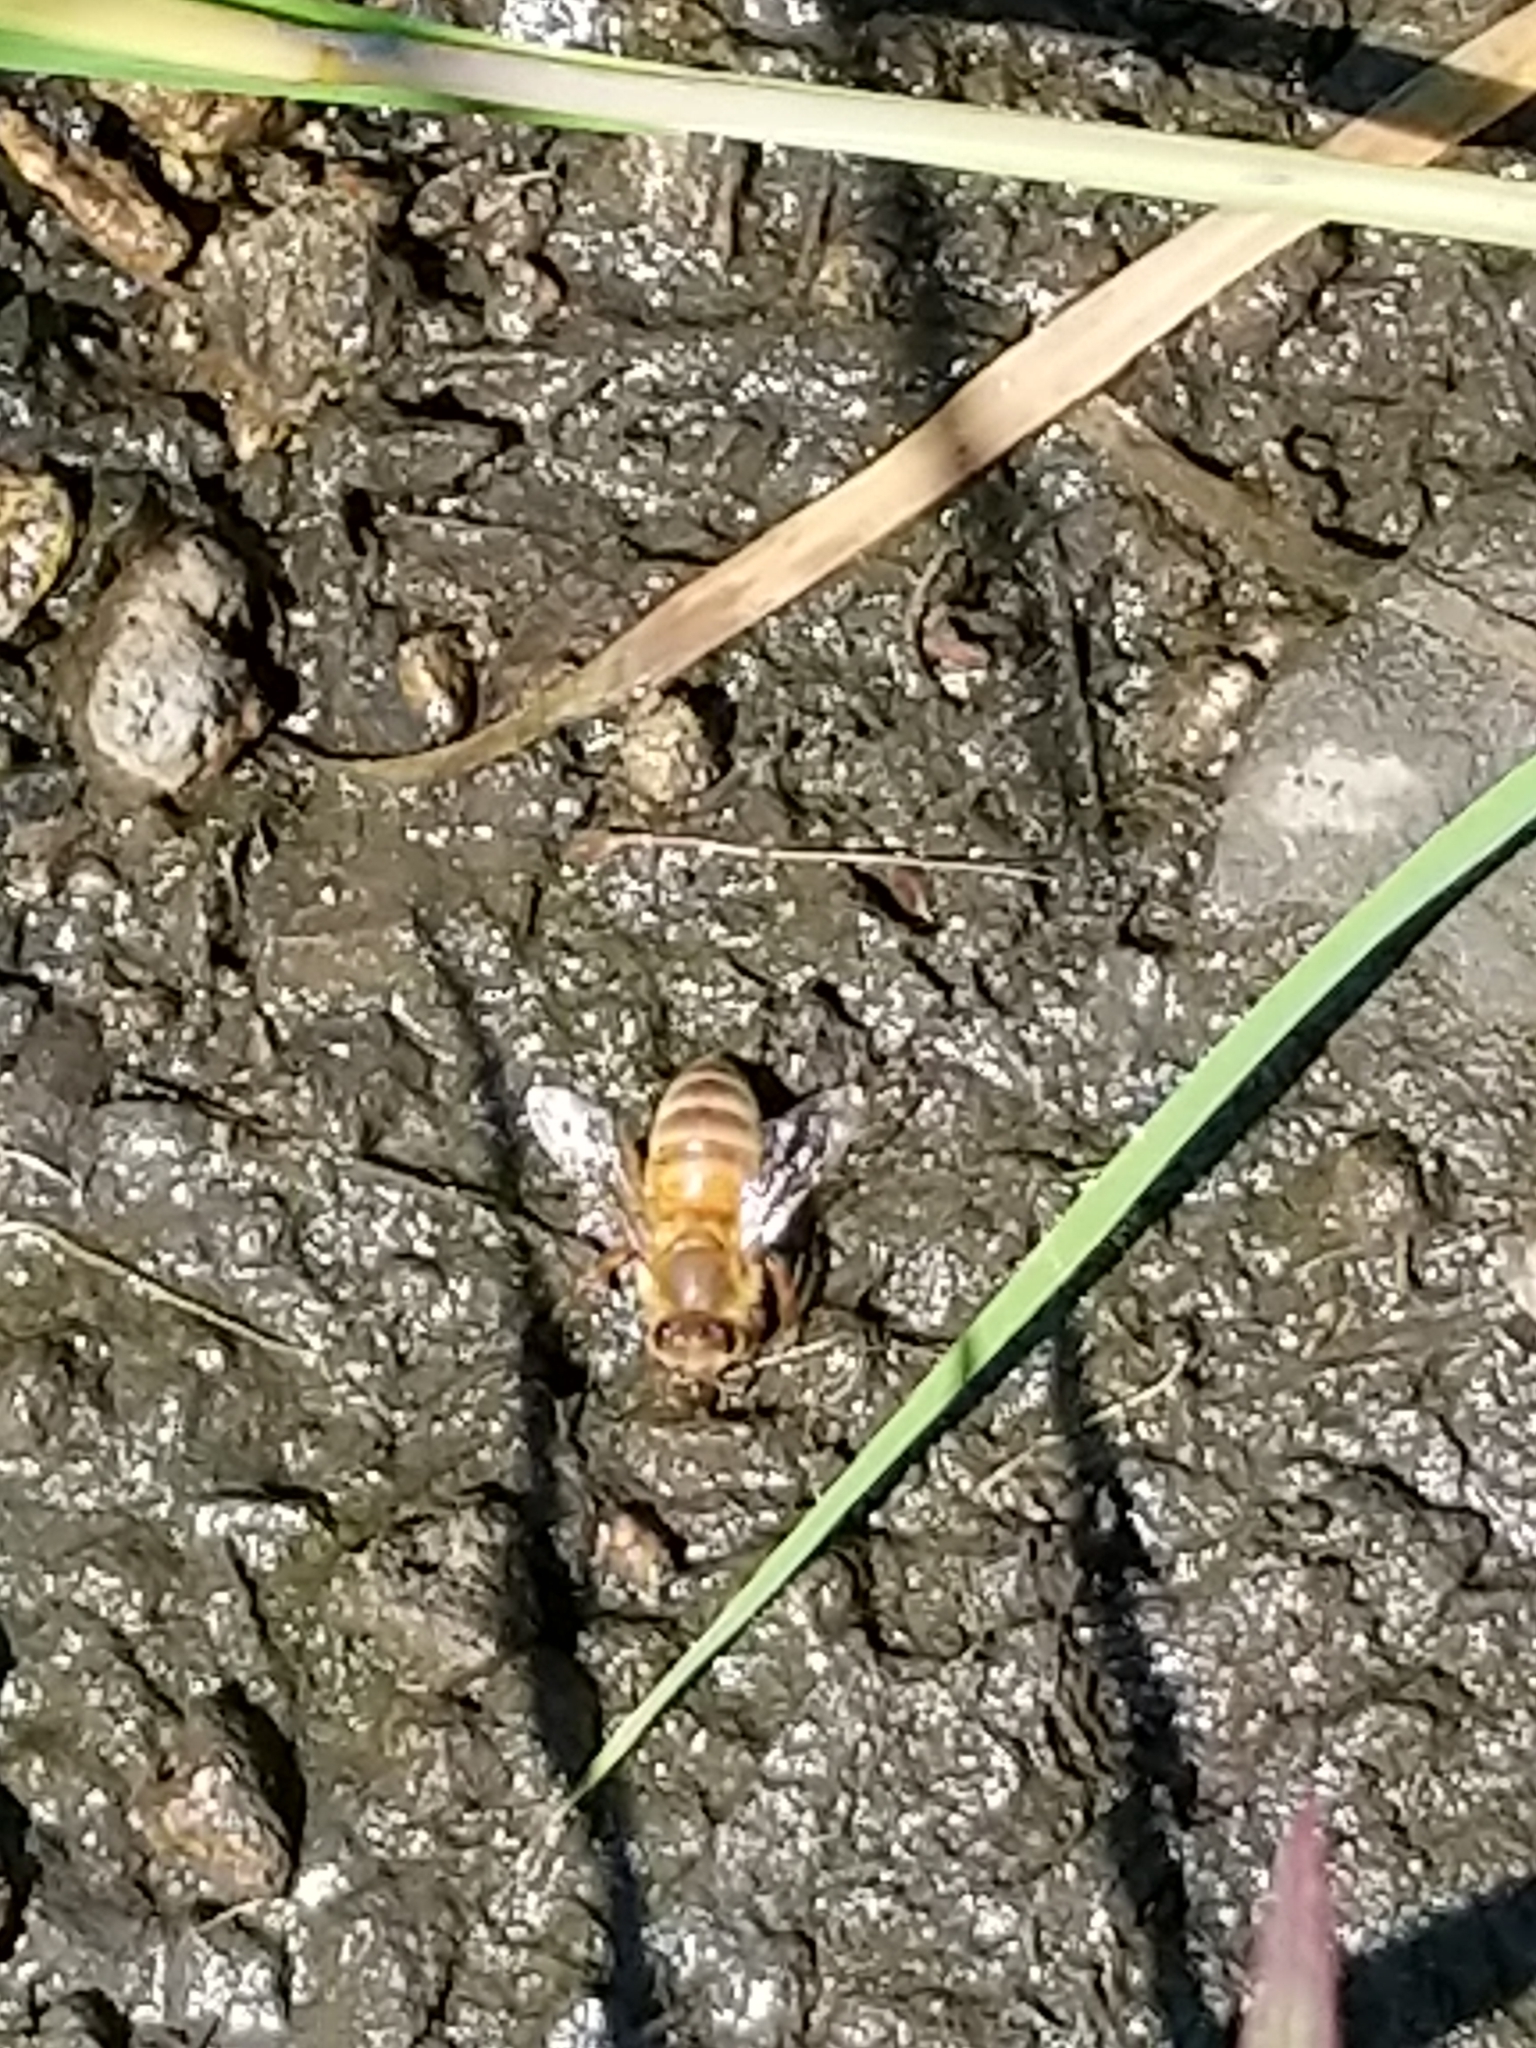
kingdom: Animalia
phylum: Arthropoda
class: Insecta
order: Hymenoptera
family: Apidae
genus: Apis
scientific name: Apis mellifera
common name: Honey bee
